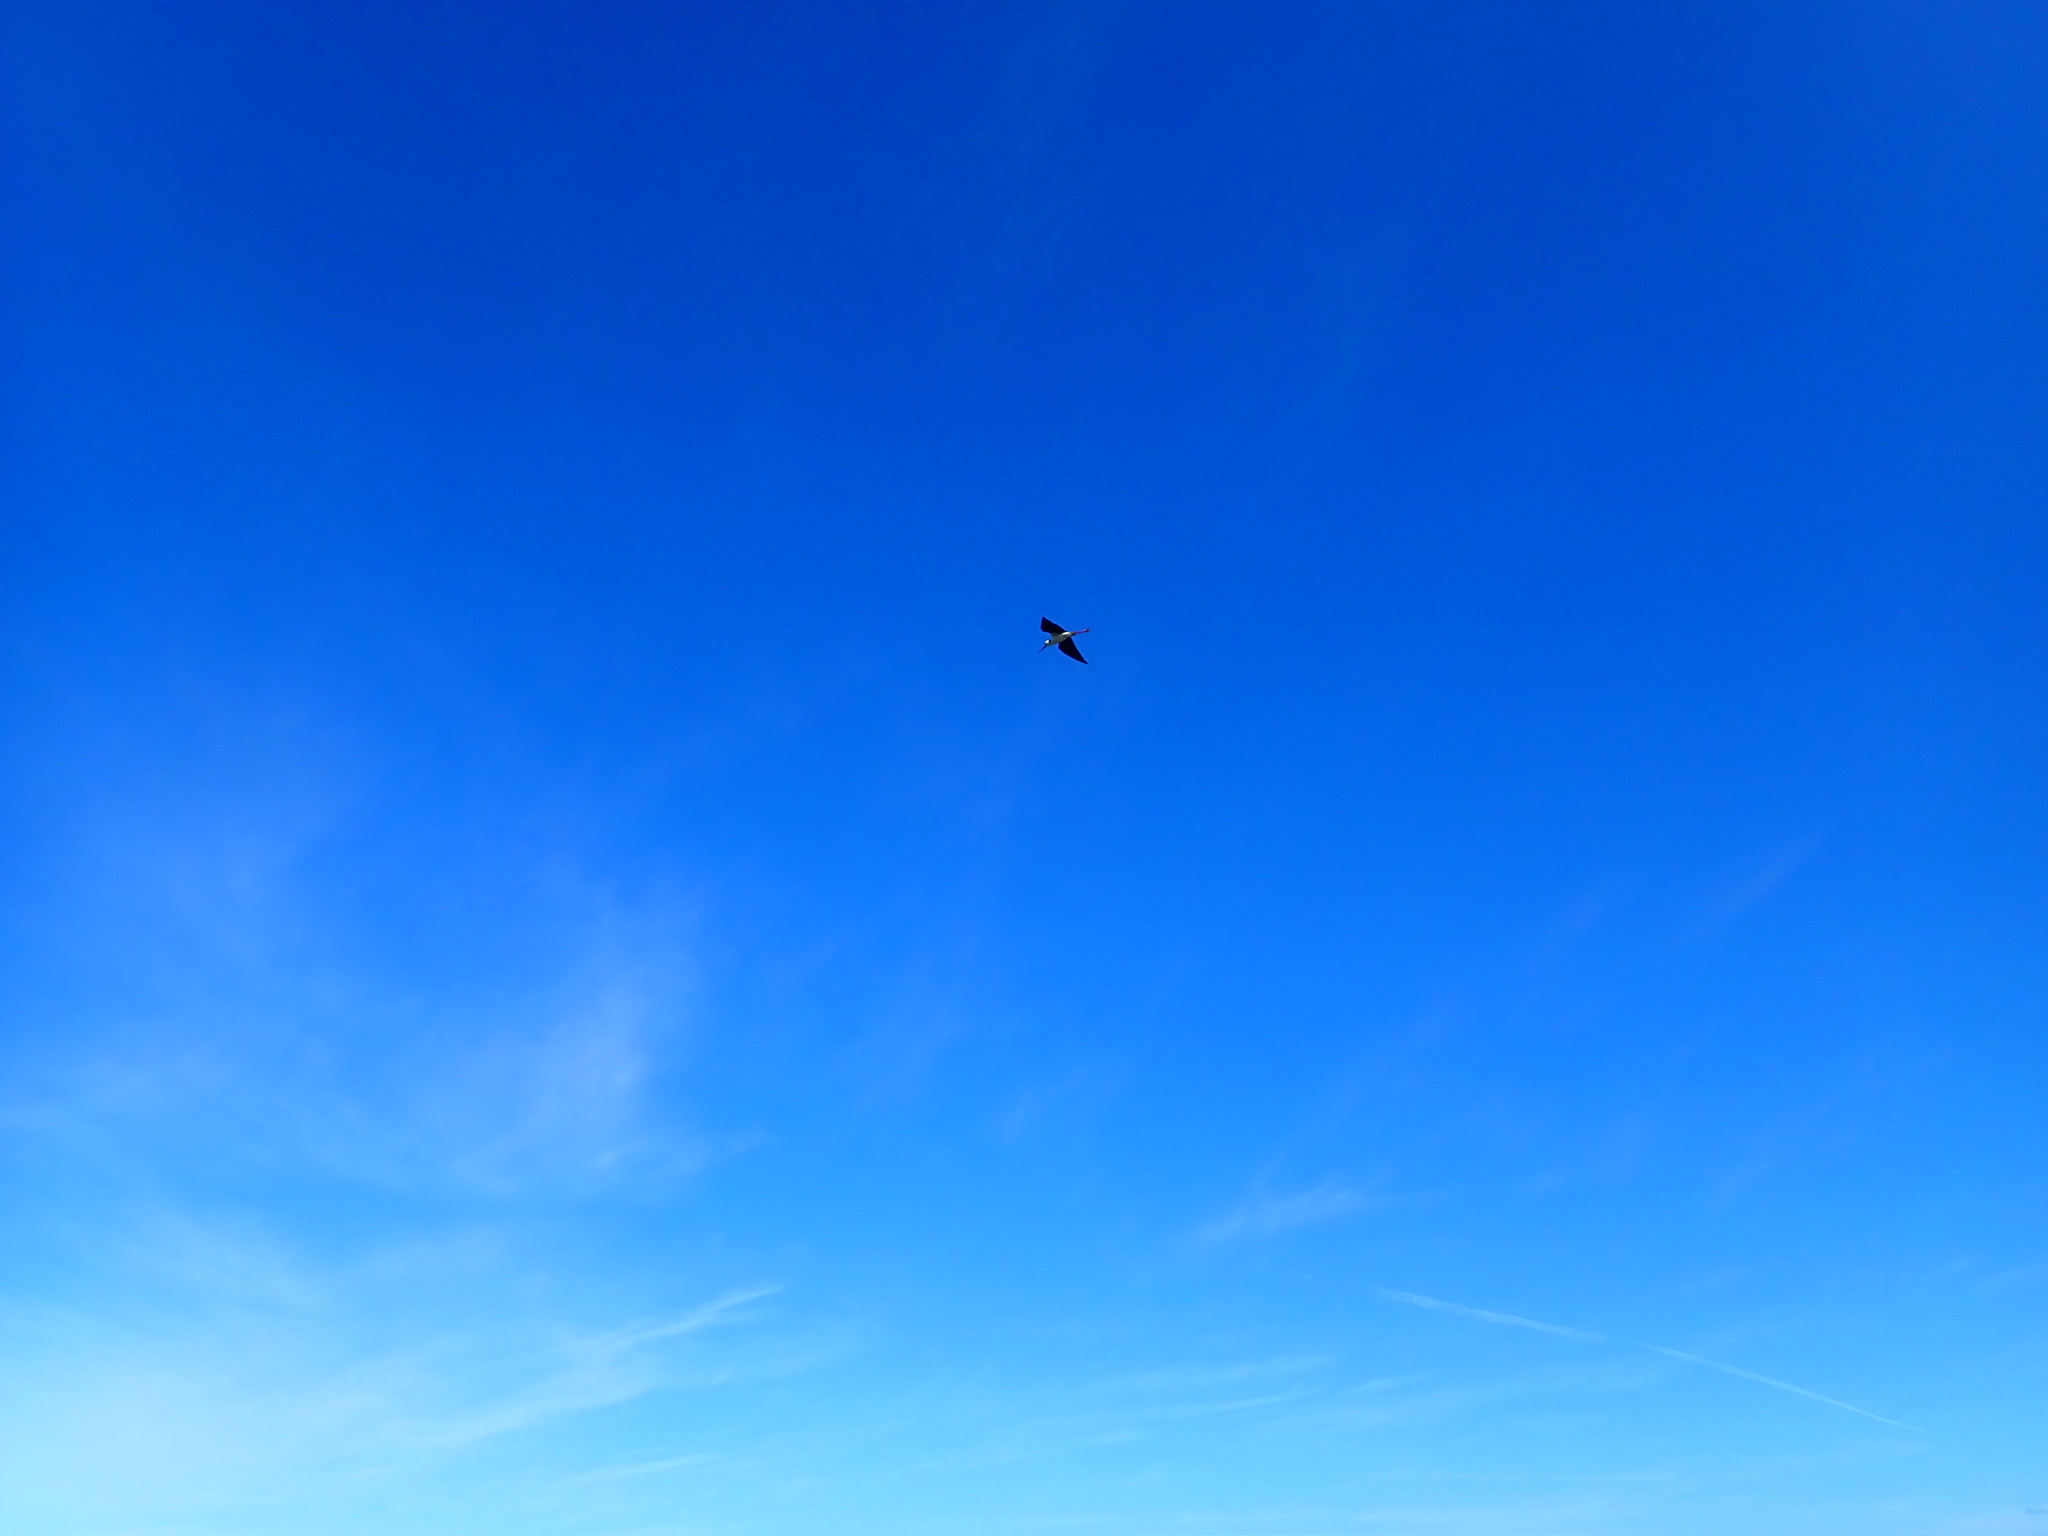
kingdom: Animalia
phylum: Chordata
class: Aves
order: Charadriiformes
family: Recurvirostridae
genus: Himantopus
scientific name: Himantopus leucocephalus
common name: White-headed stilt
